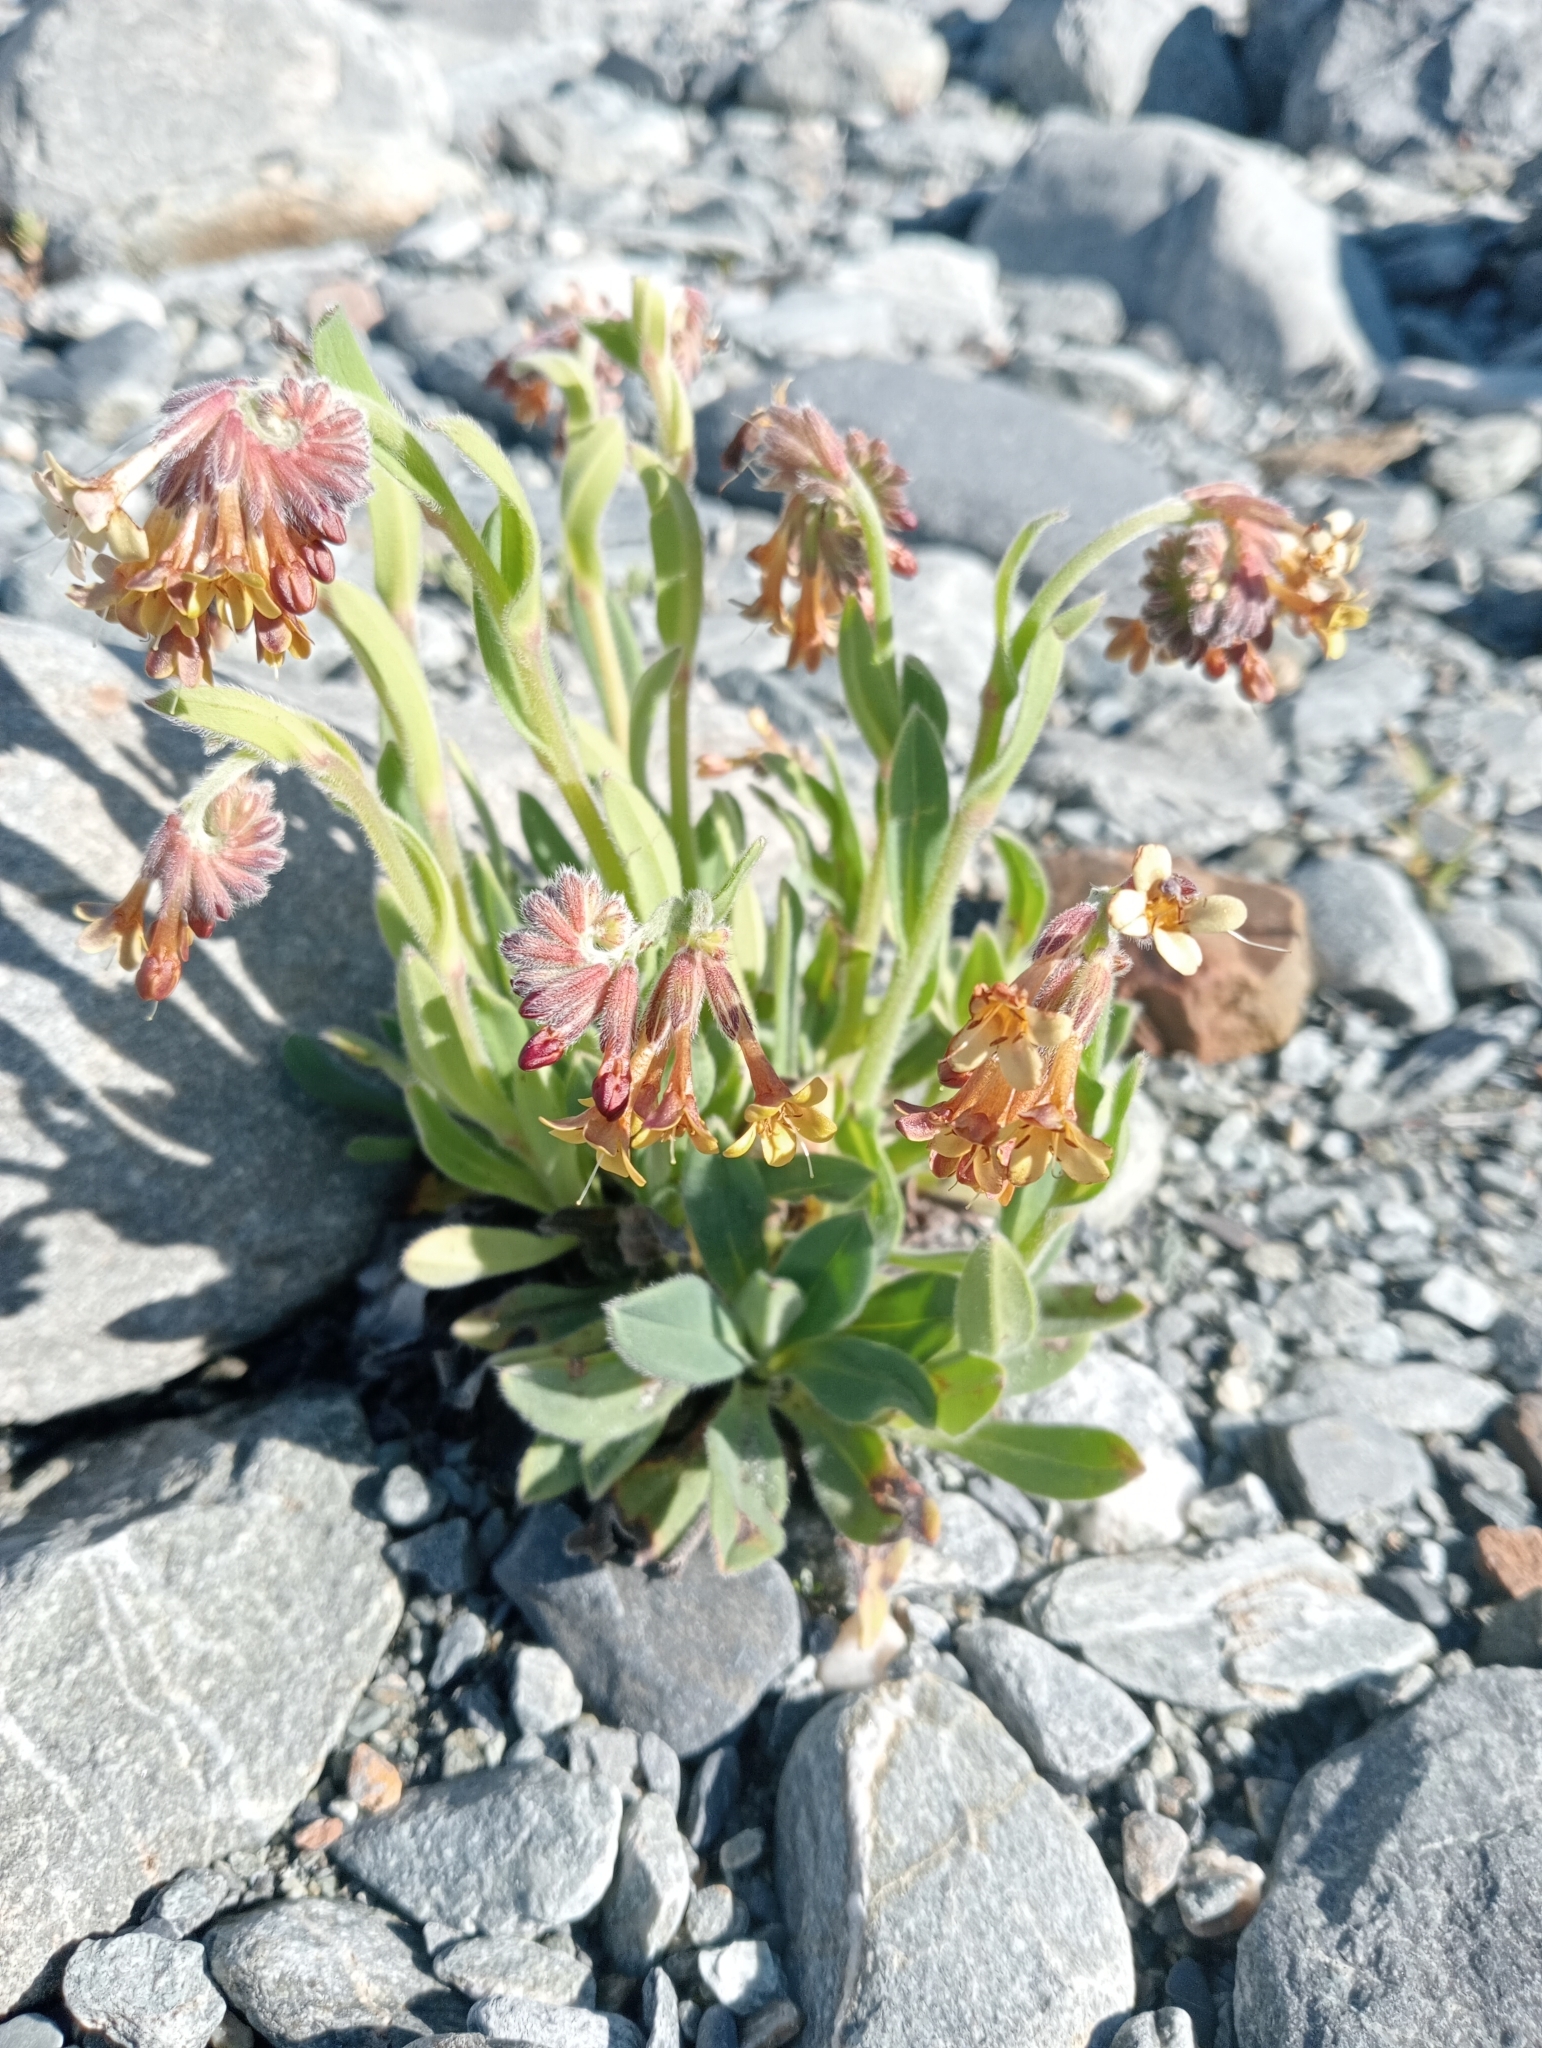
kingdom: Plantae
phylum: Tracheophyta
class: Magnoliopsida
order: Boraginales
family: Boraginaceae
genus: Myosotis
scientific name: Myosotis macrantha
